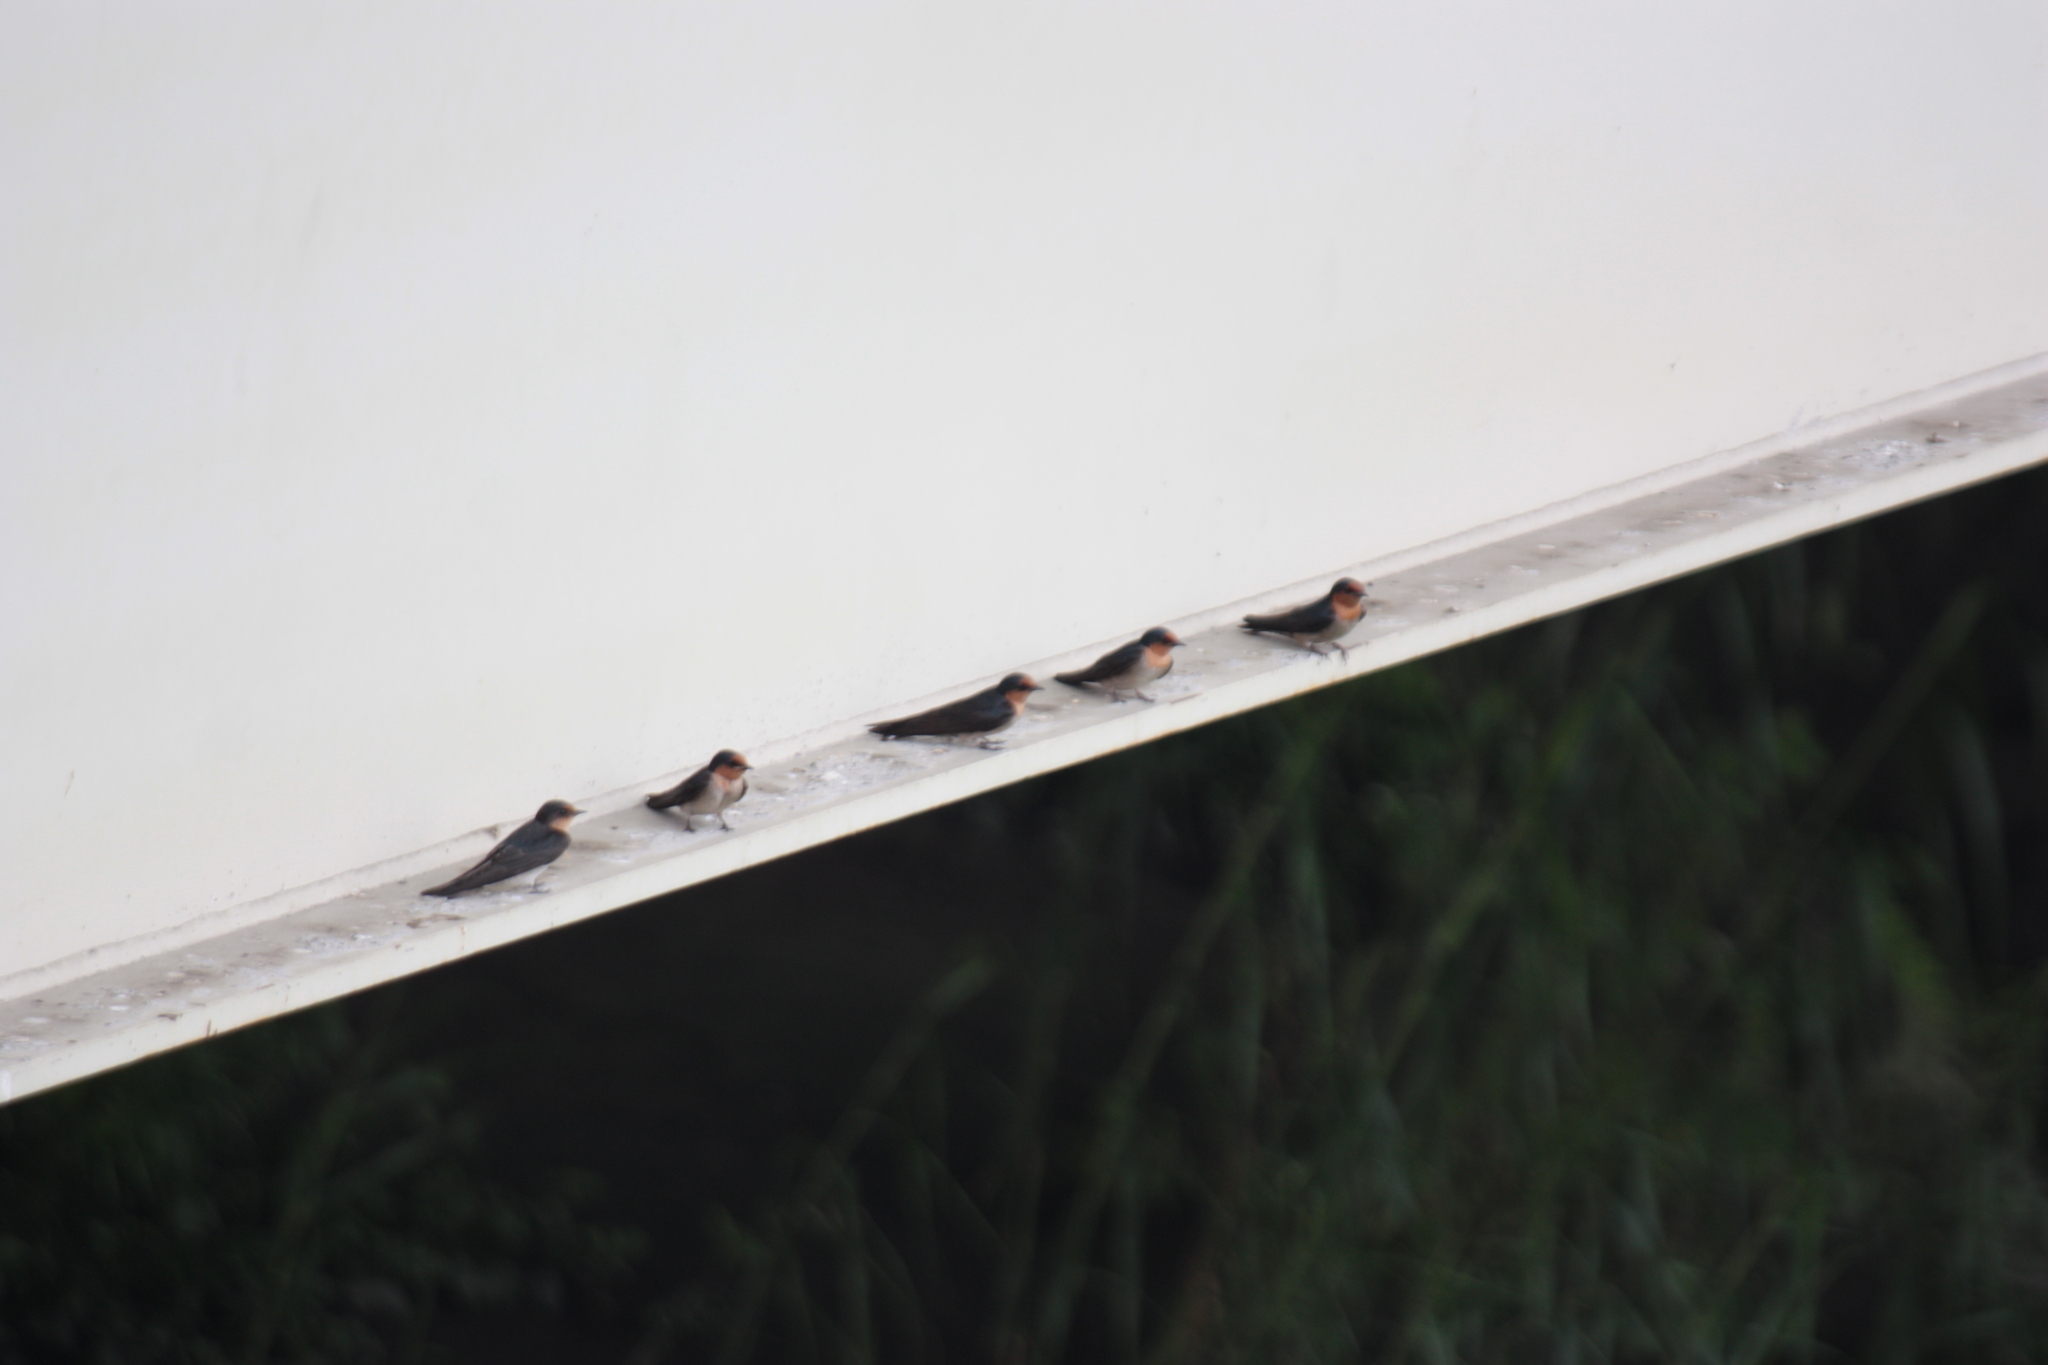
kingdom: Animalia
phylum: Chordata
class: Aves
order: Passeriformes
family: Hirundinidae
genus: Hirundo
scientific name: Hirundo tahitica
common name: Pacific swallow
